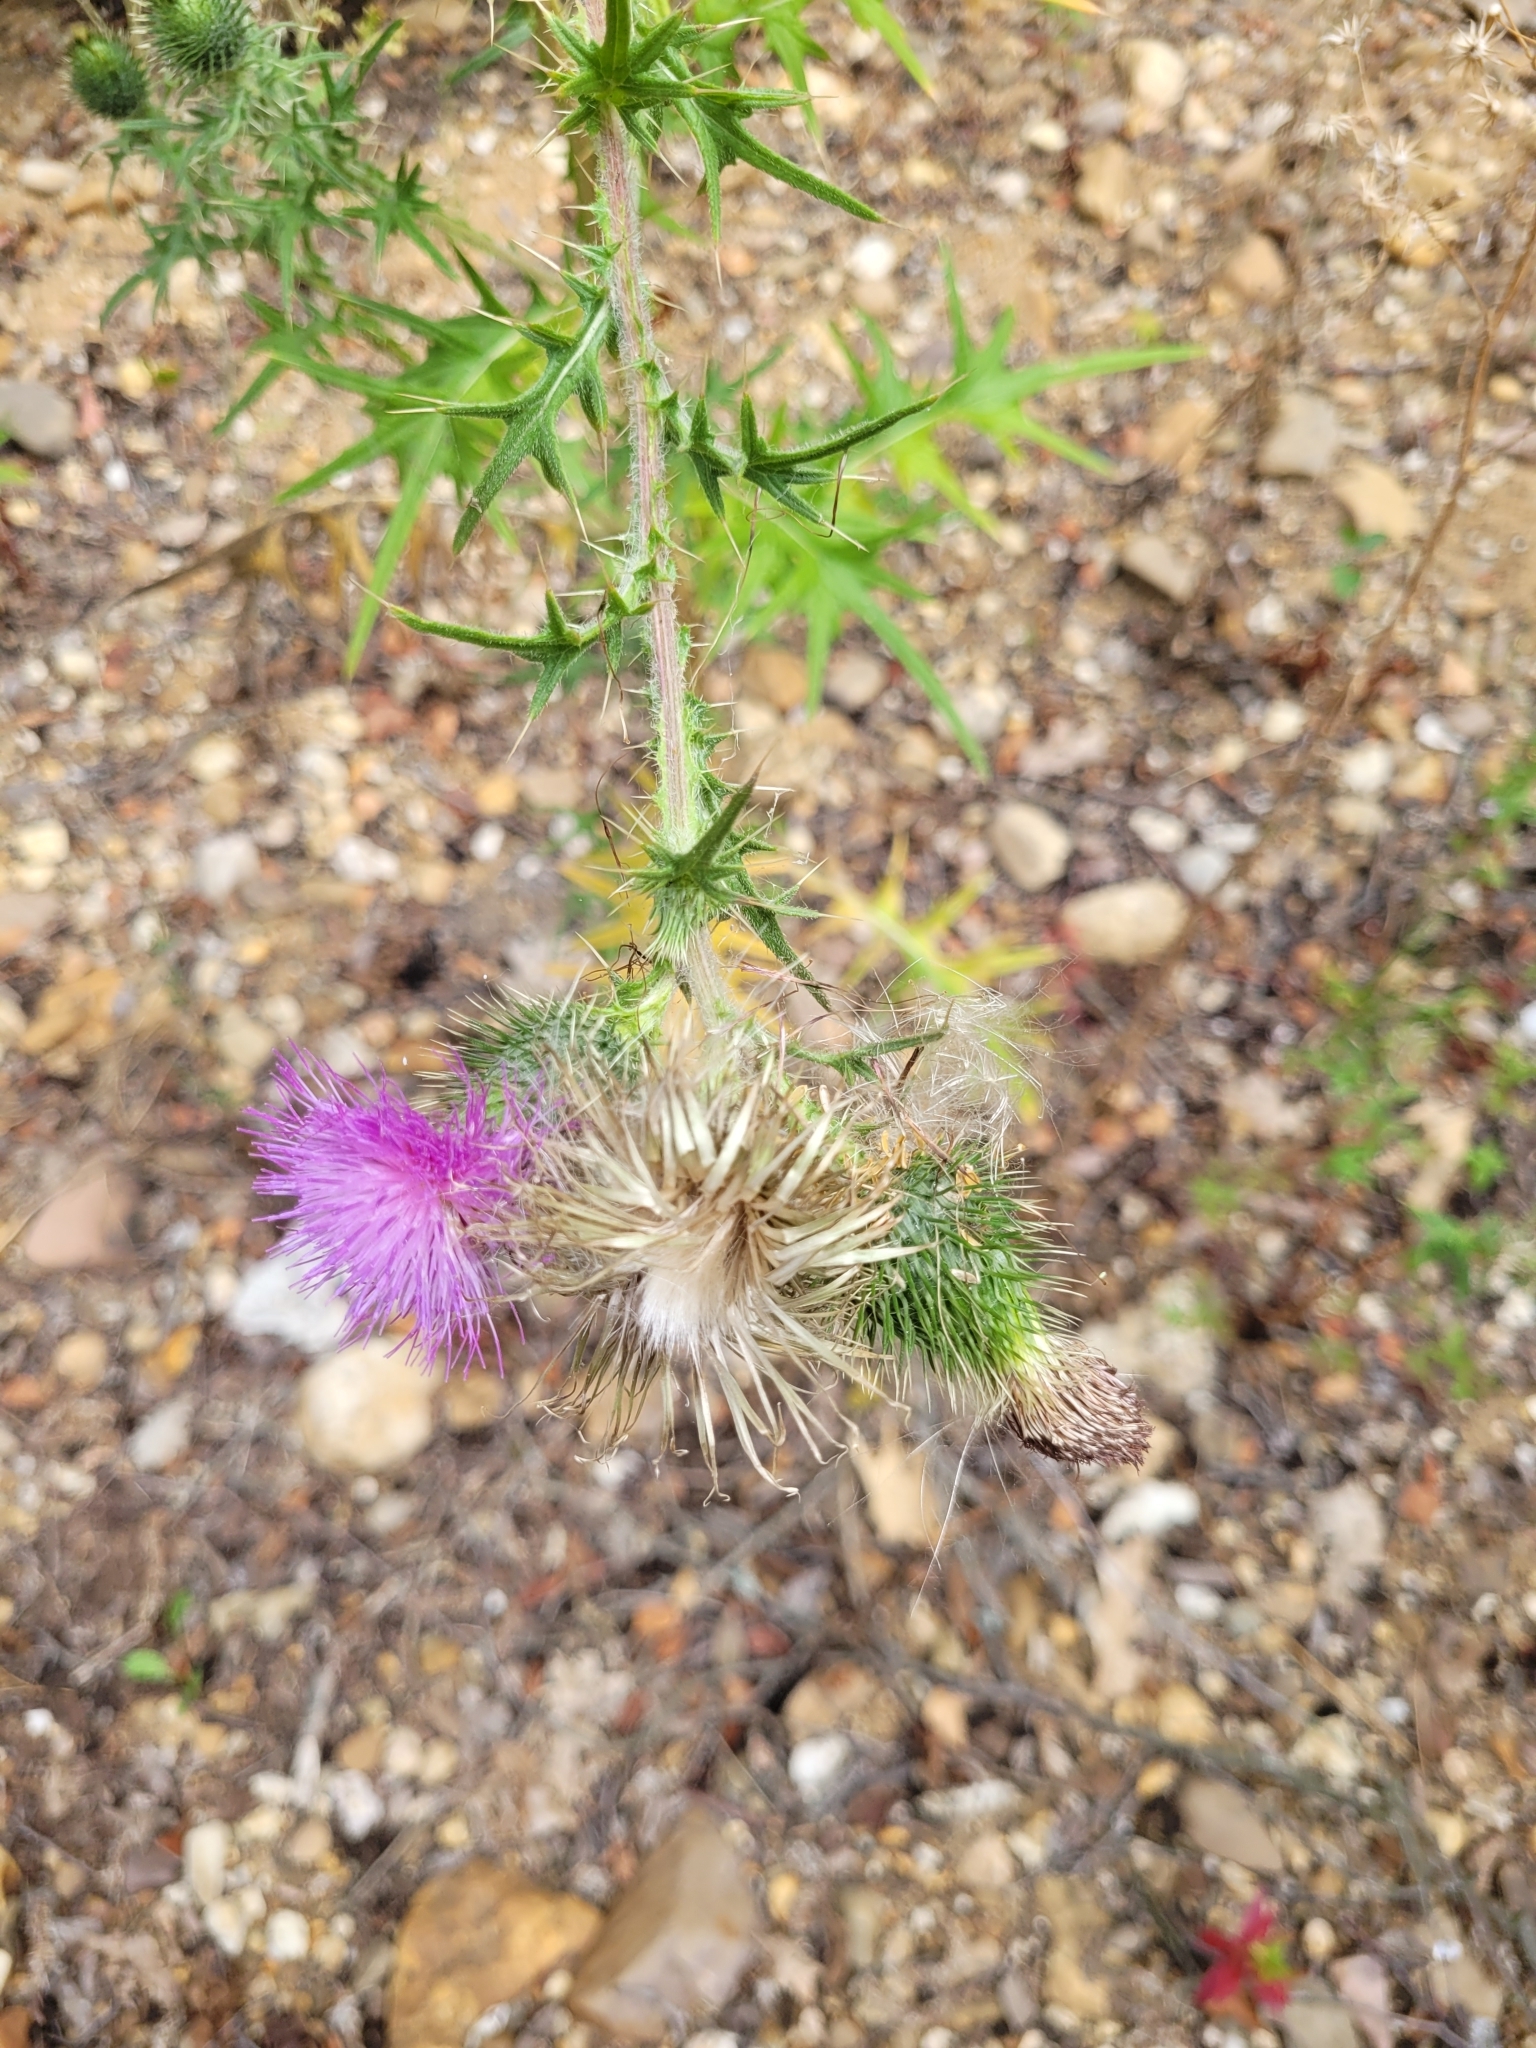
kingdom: Plantae
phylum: Tracheophyta
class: Magnoliopsida
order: Asterales
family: Asteraceae
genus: Cirsium
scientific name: Cirsium vulgare
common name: Bull thistle
